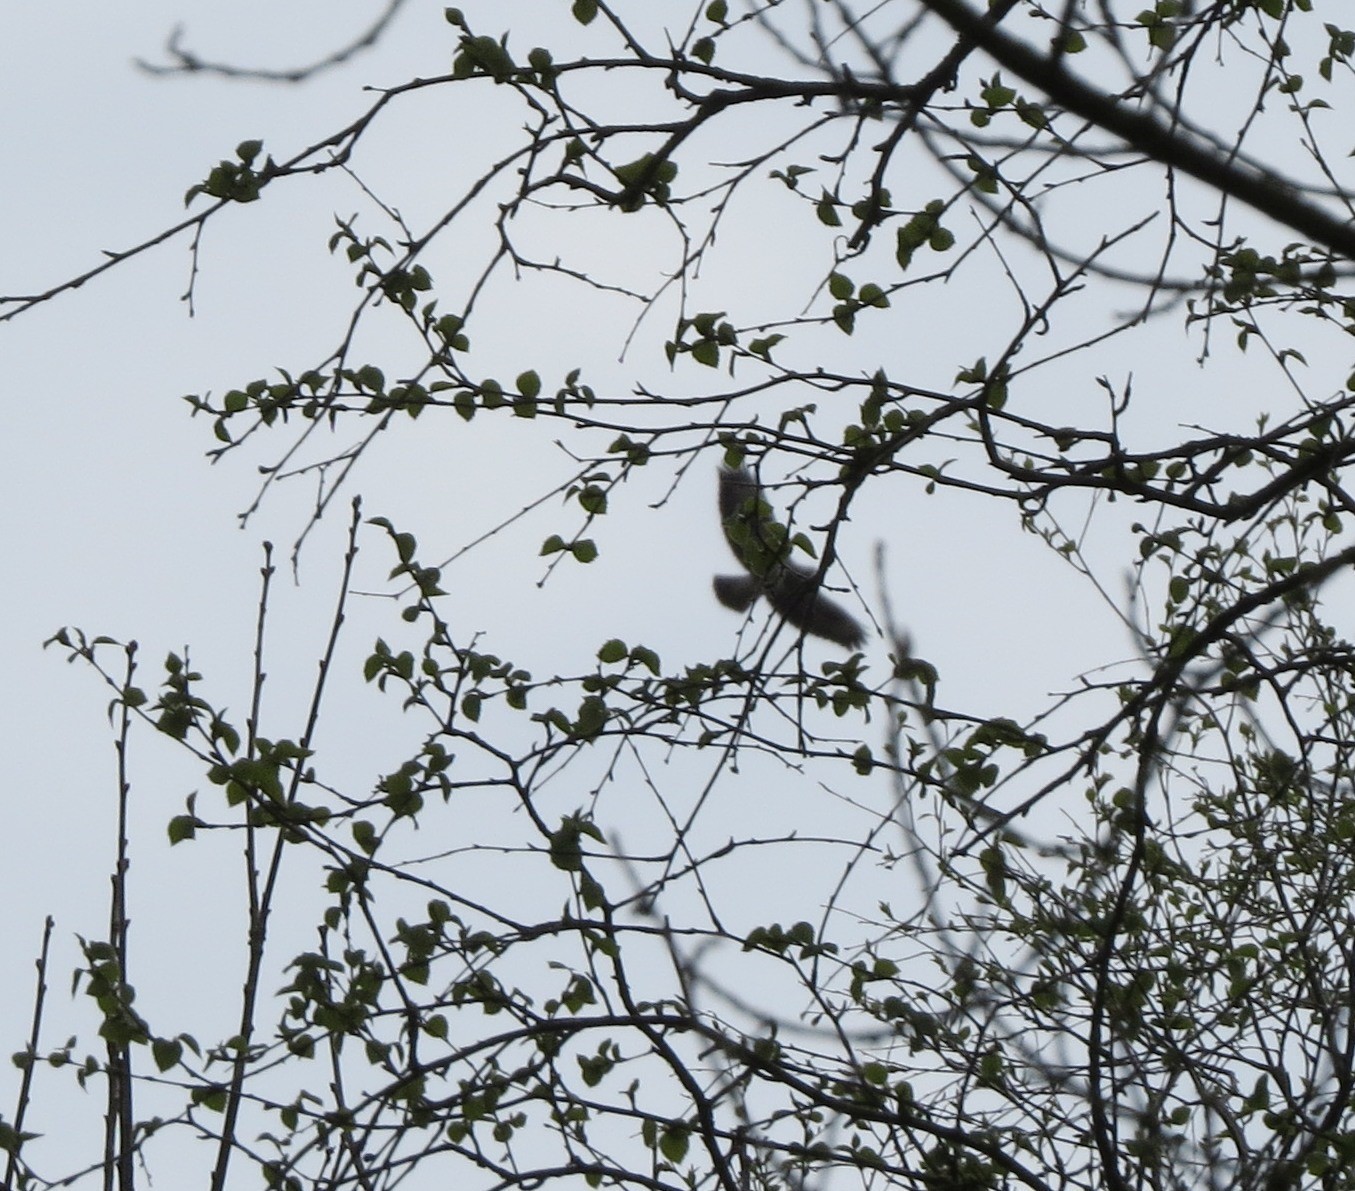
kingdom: Animalia
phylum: Chordata
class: Aves
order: Accipitriformes
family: Accipitridae
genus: Buteo
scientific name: Buteo buteo
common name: Common buzzard
